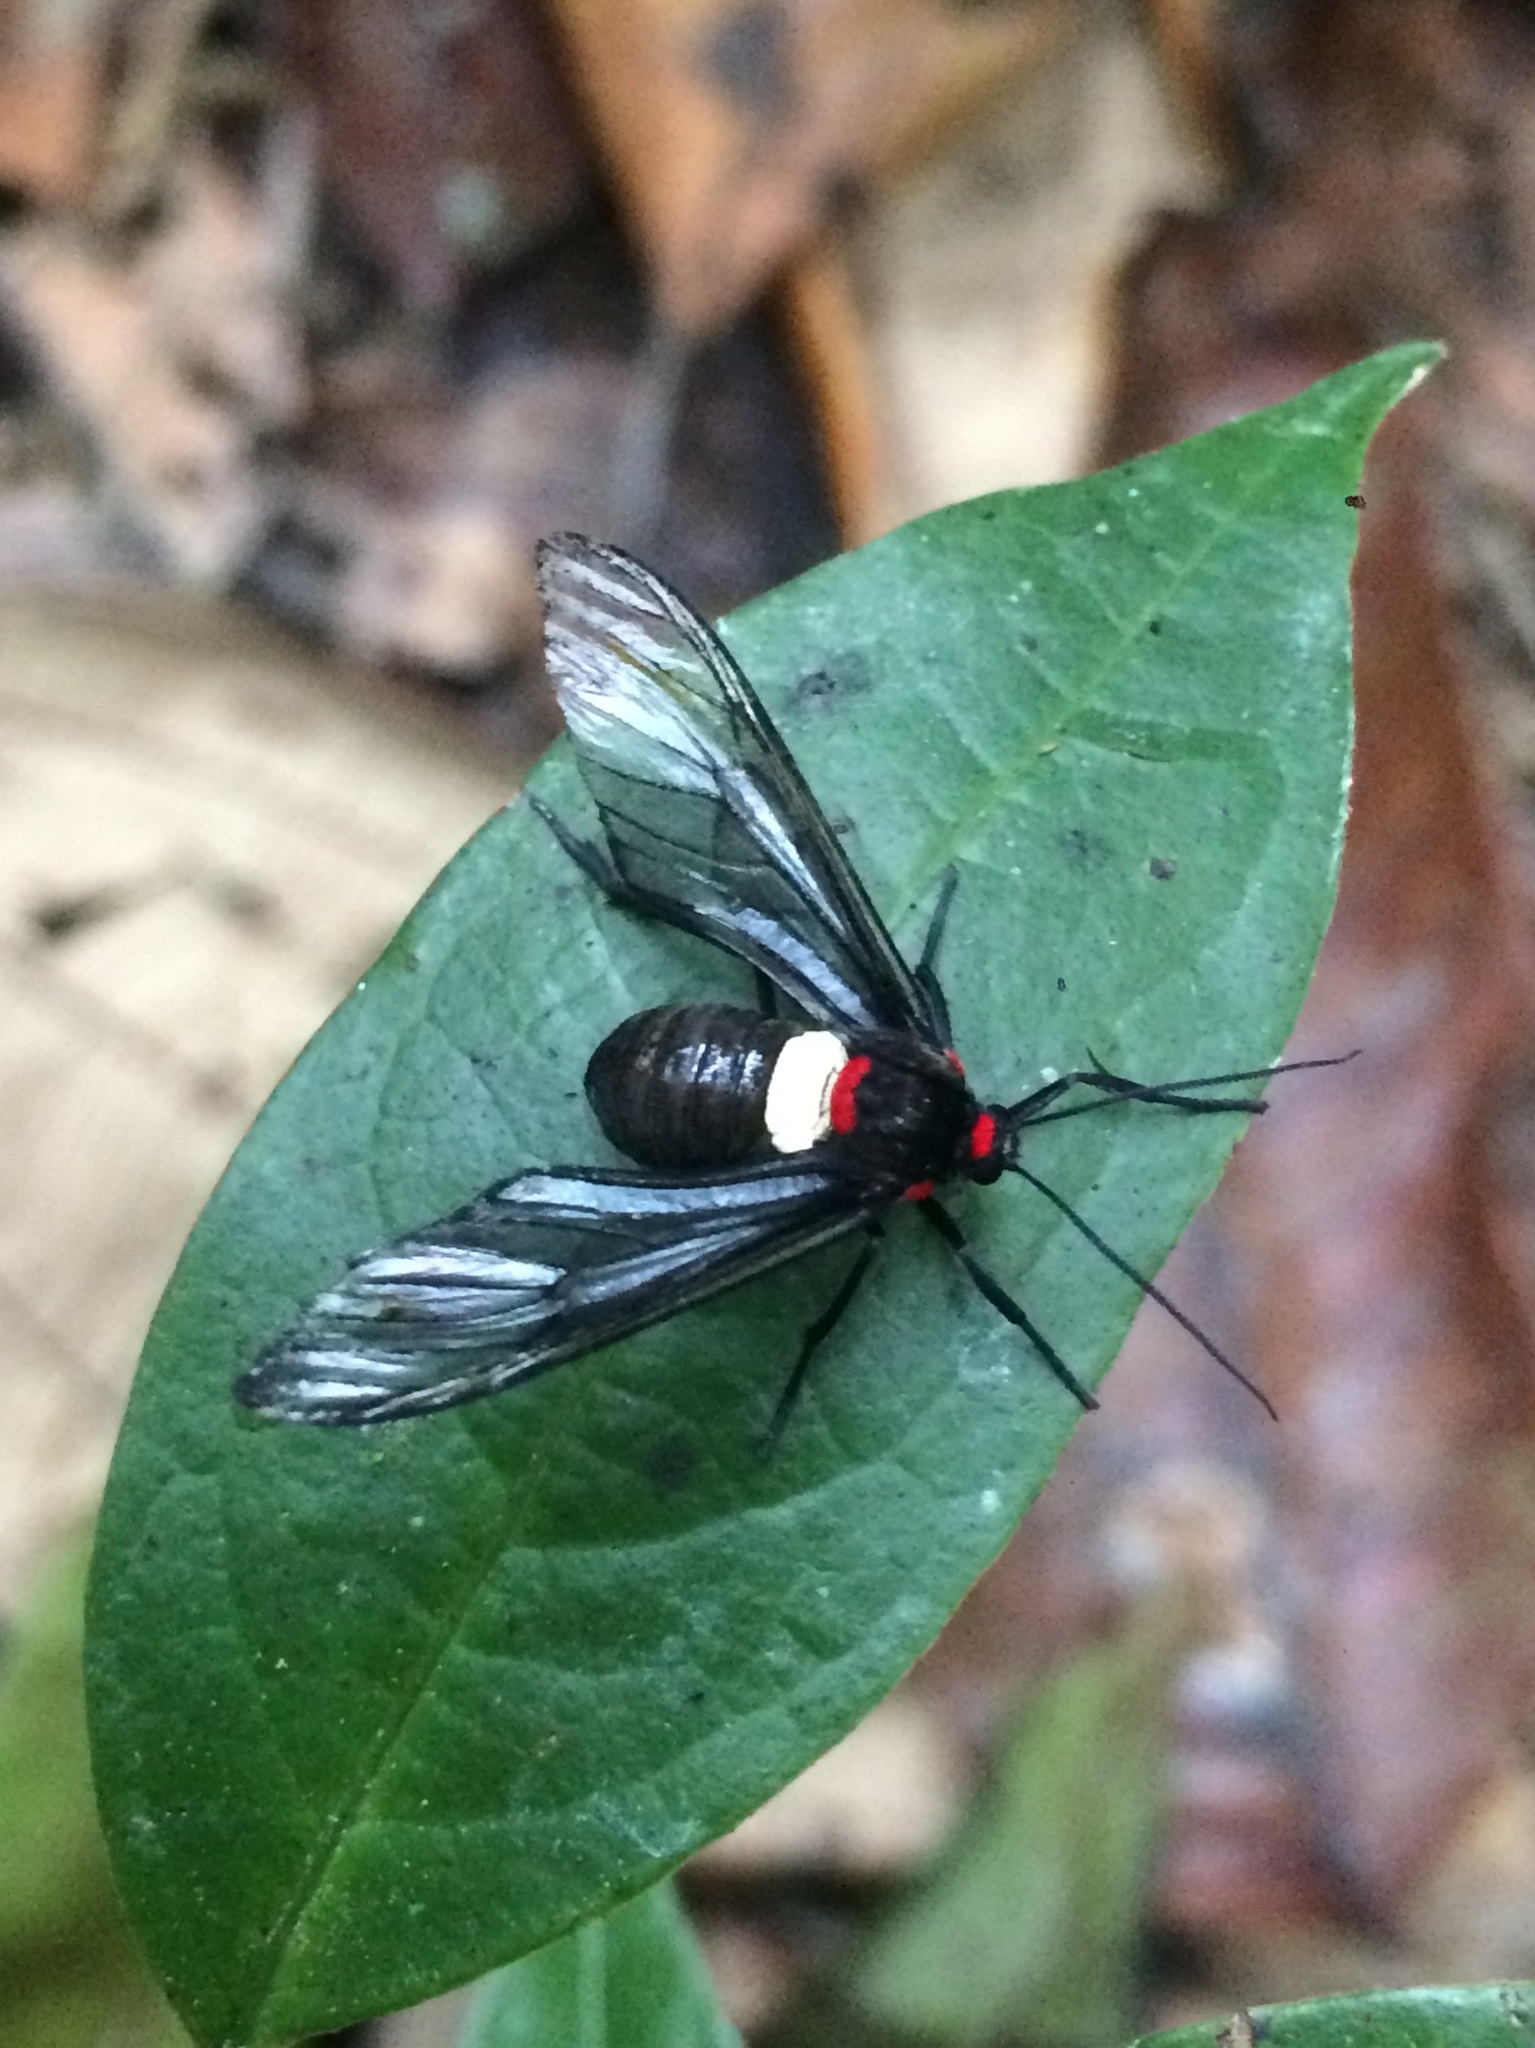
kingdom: Animalia
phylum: Arthropoda
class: Insecta
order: Lepidoptera
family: Erebidae
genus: Pseudohyaleucerea
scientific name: Pseudohyaleucerea Pseudocharis picta
